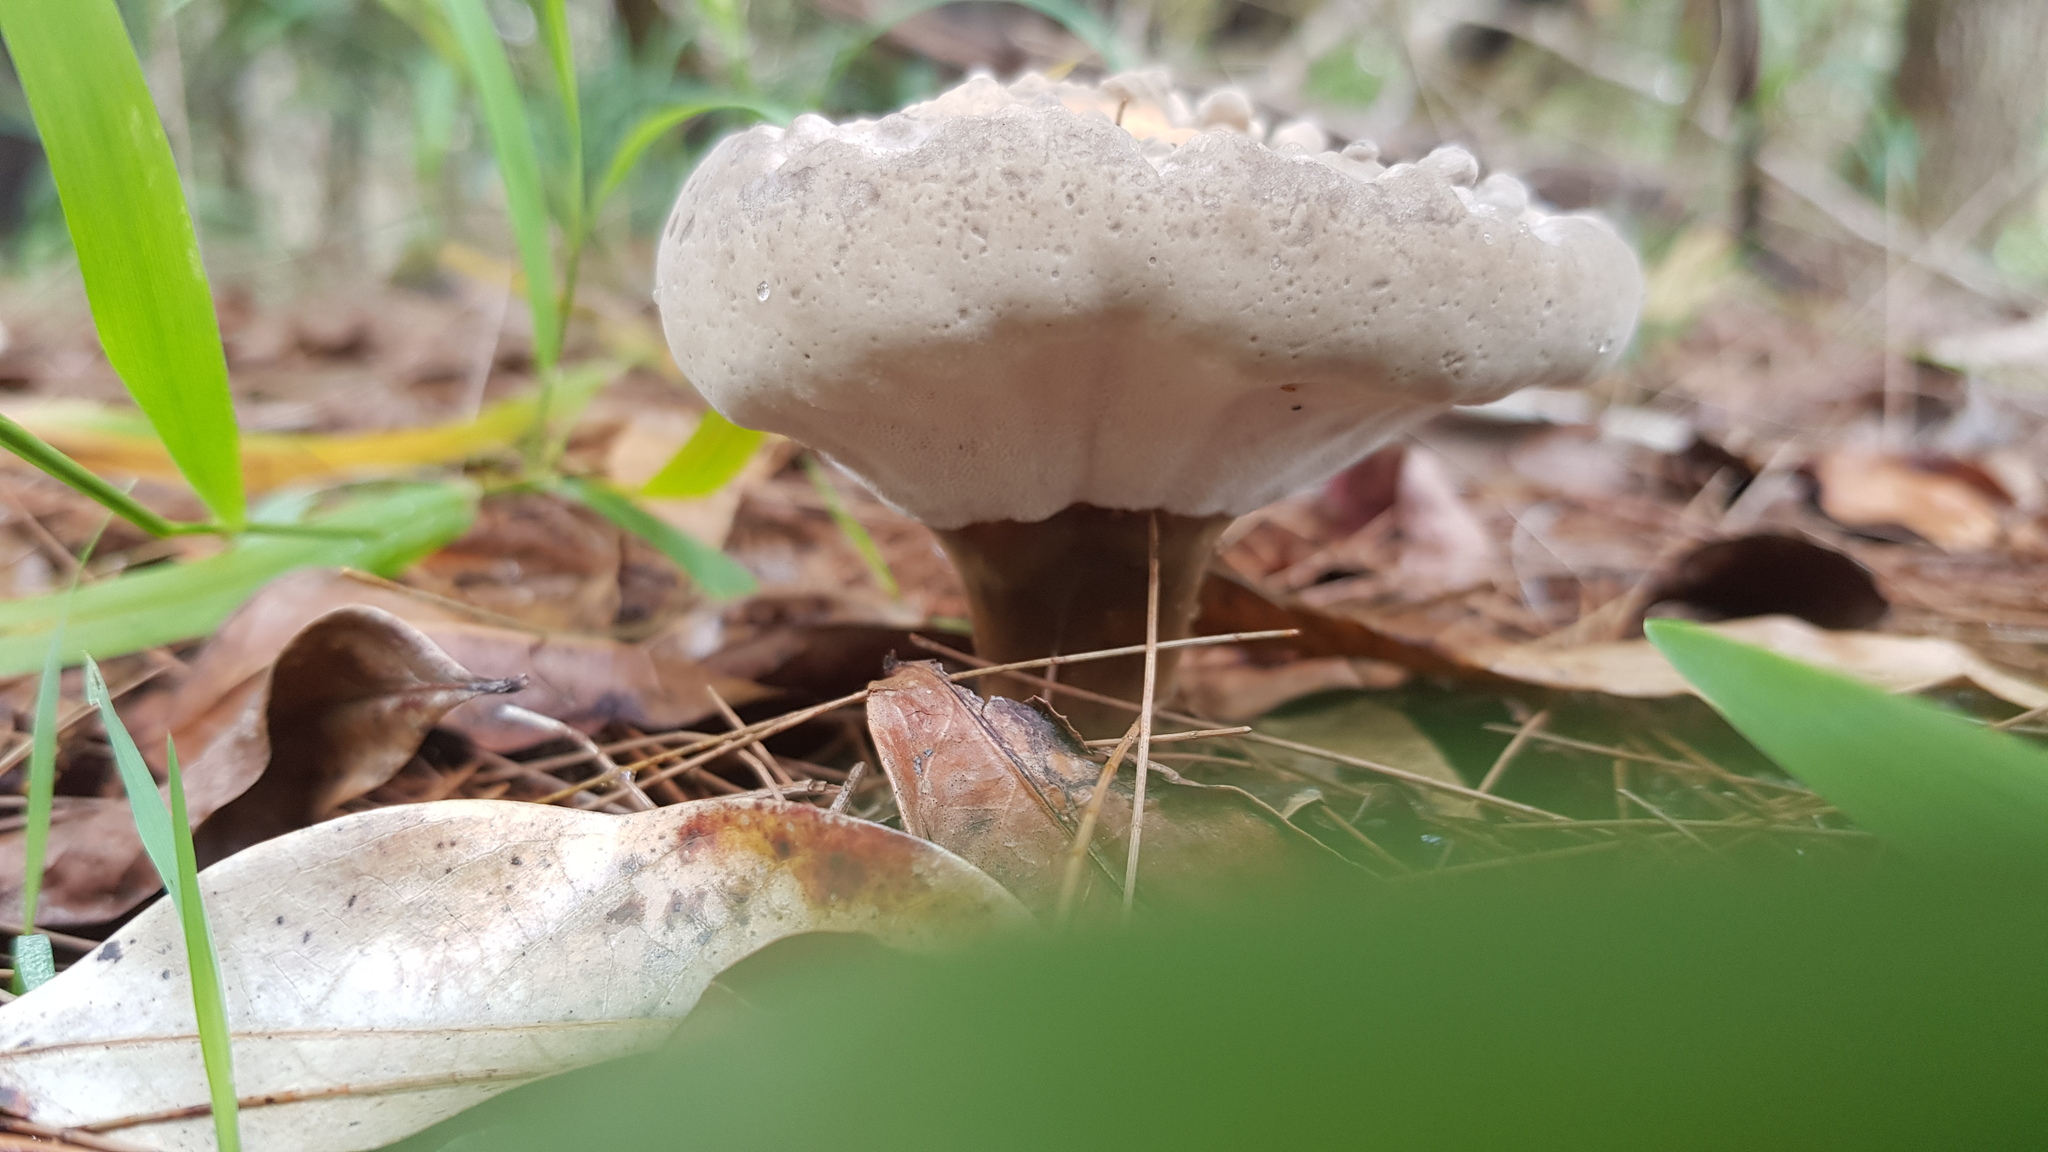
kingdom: Fungi
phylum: Basidiomycota
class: Agaricomycetes
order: Polyporales
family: Ganodermataceae
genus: Sanguinoderma
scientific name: Sanguinoderma rude
